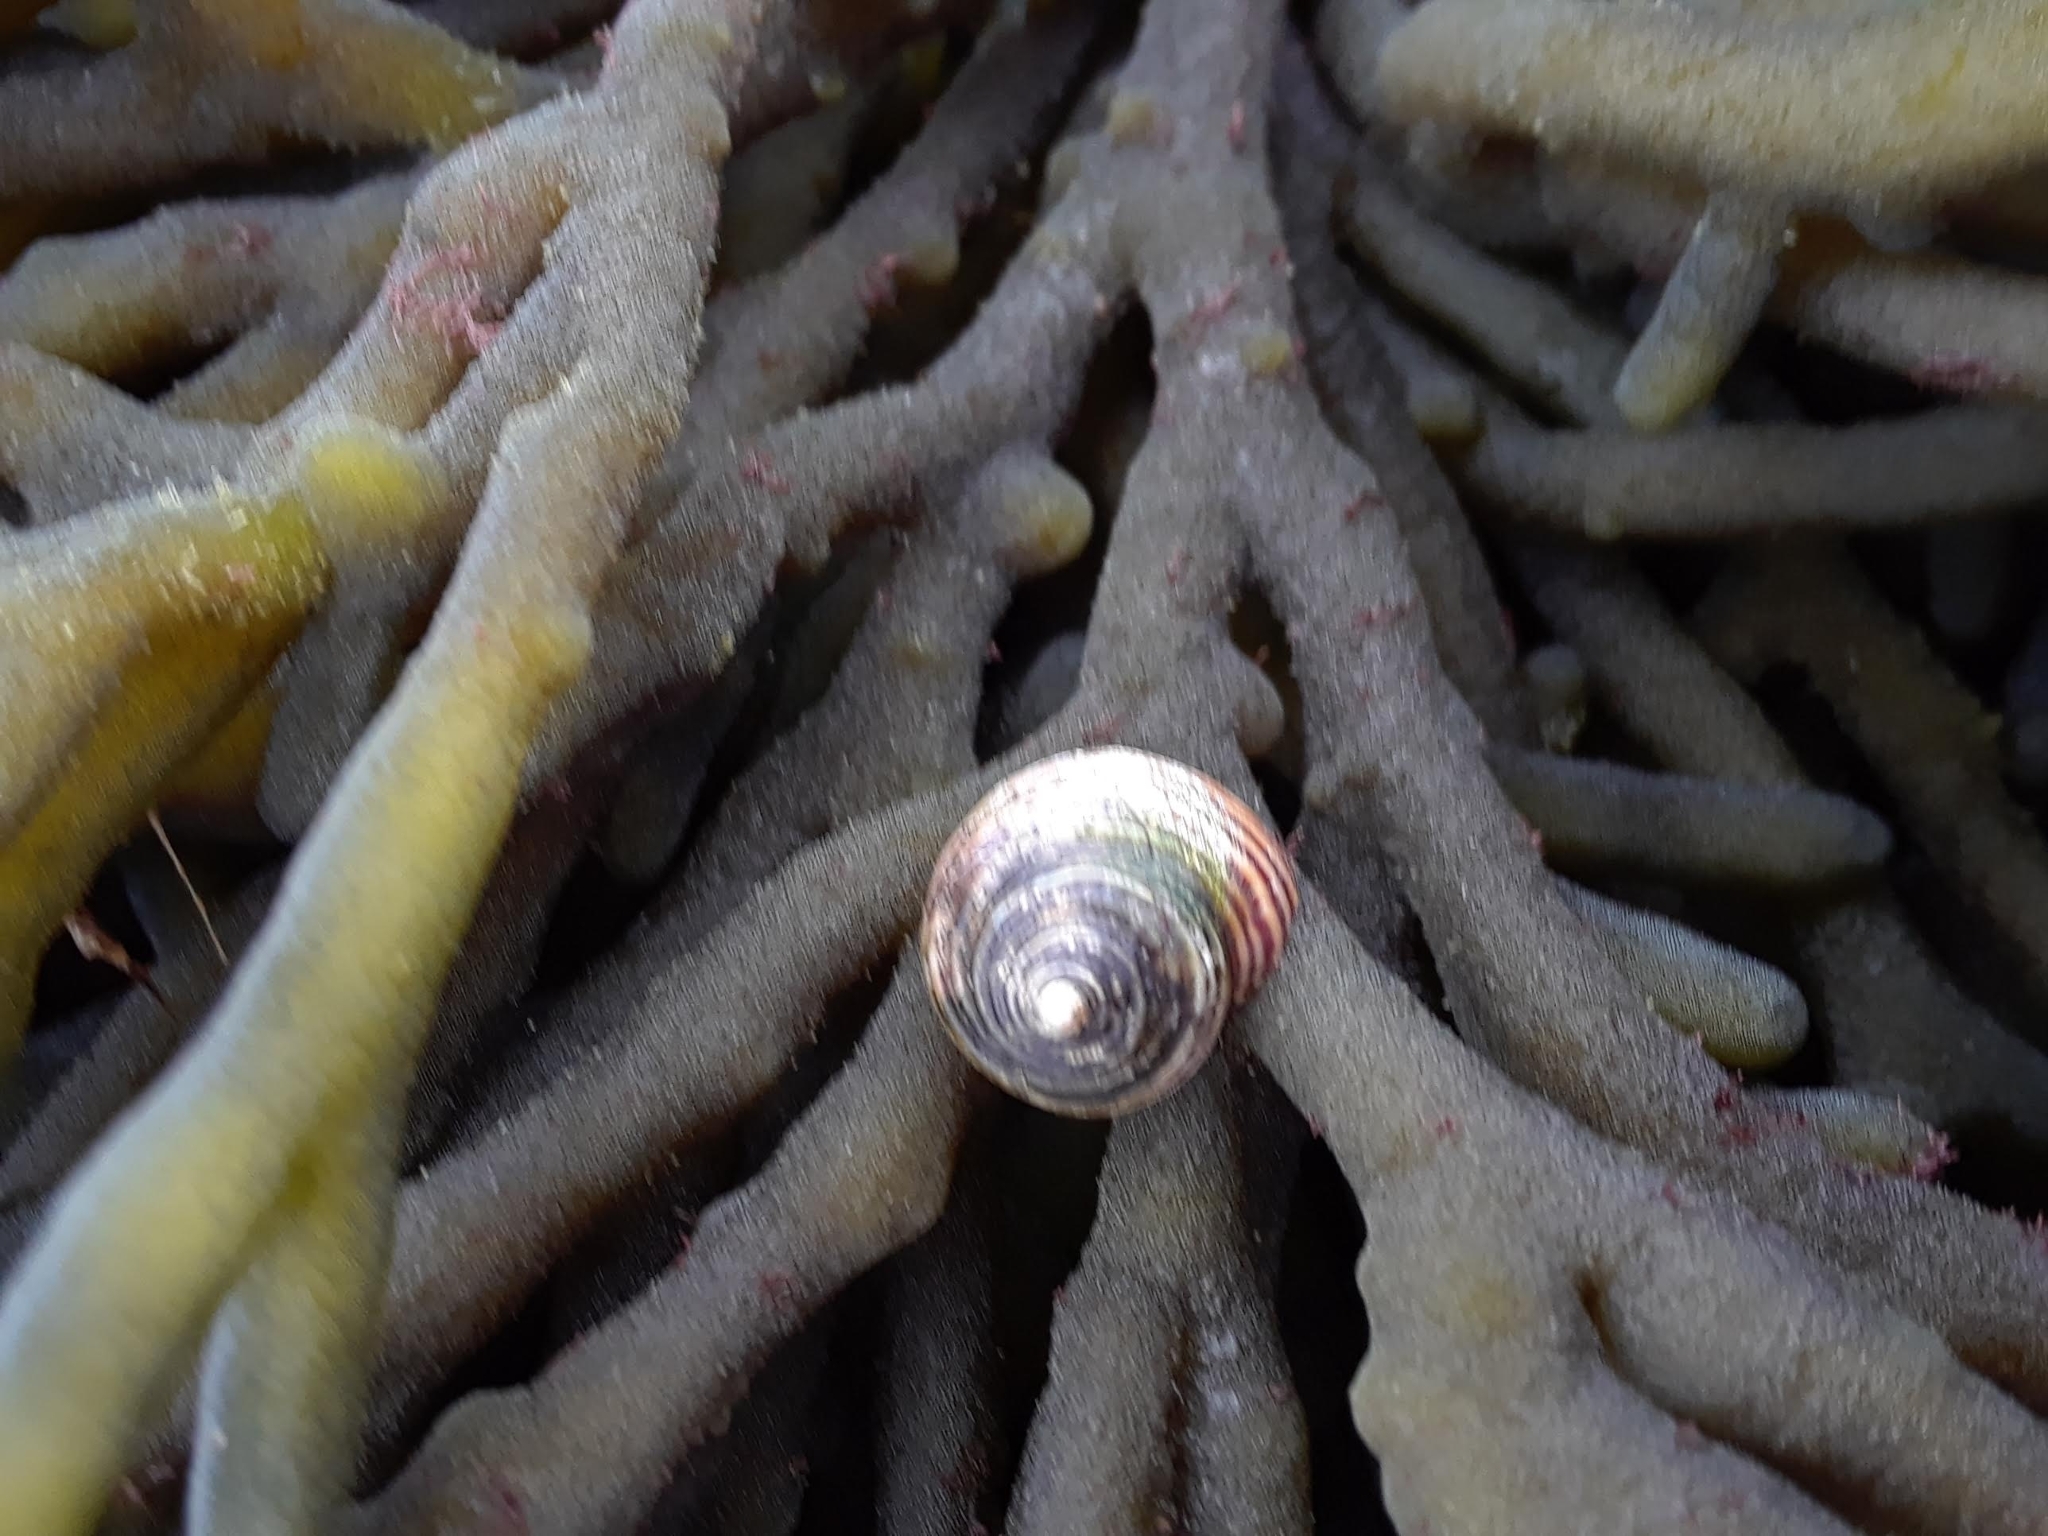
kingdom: Animalia
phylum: Mollusca
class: Gastropoda
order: Trochida
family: Calliostomatidae
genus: Calliostoma
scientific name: Calliostoma ligatum
